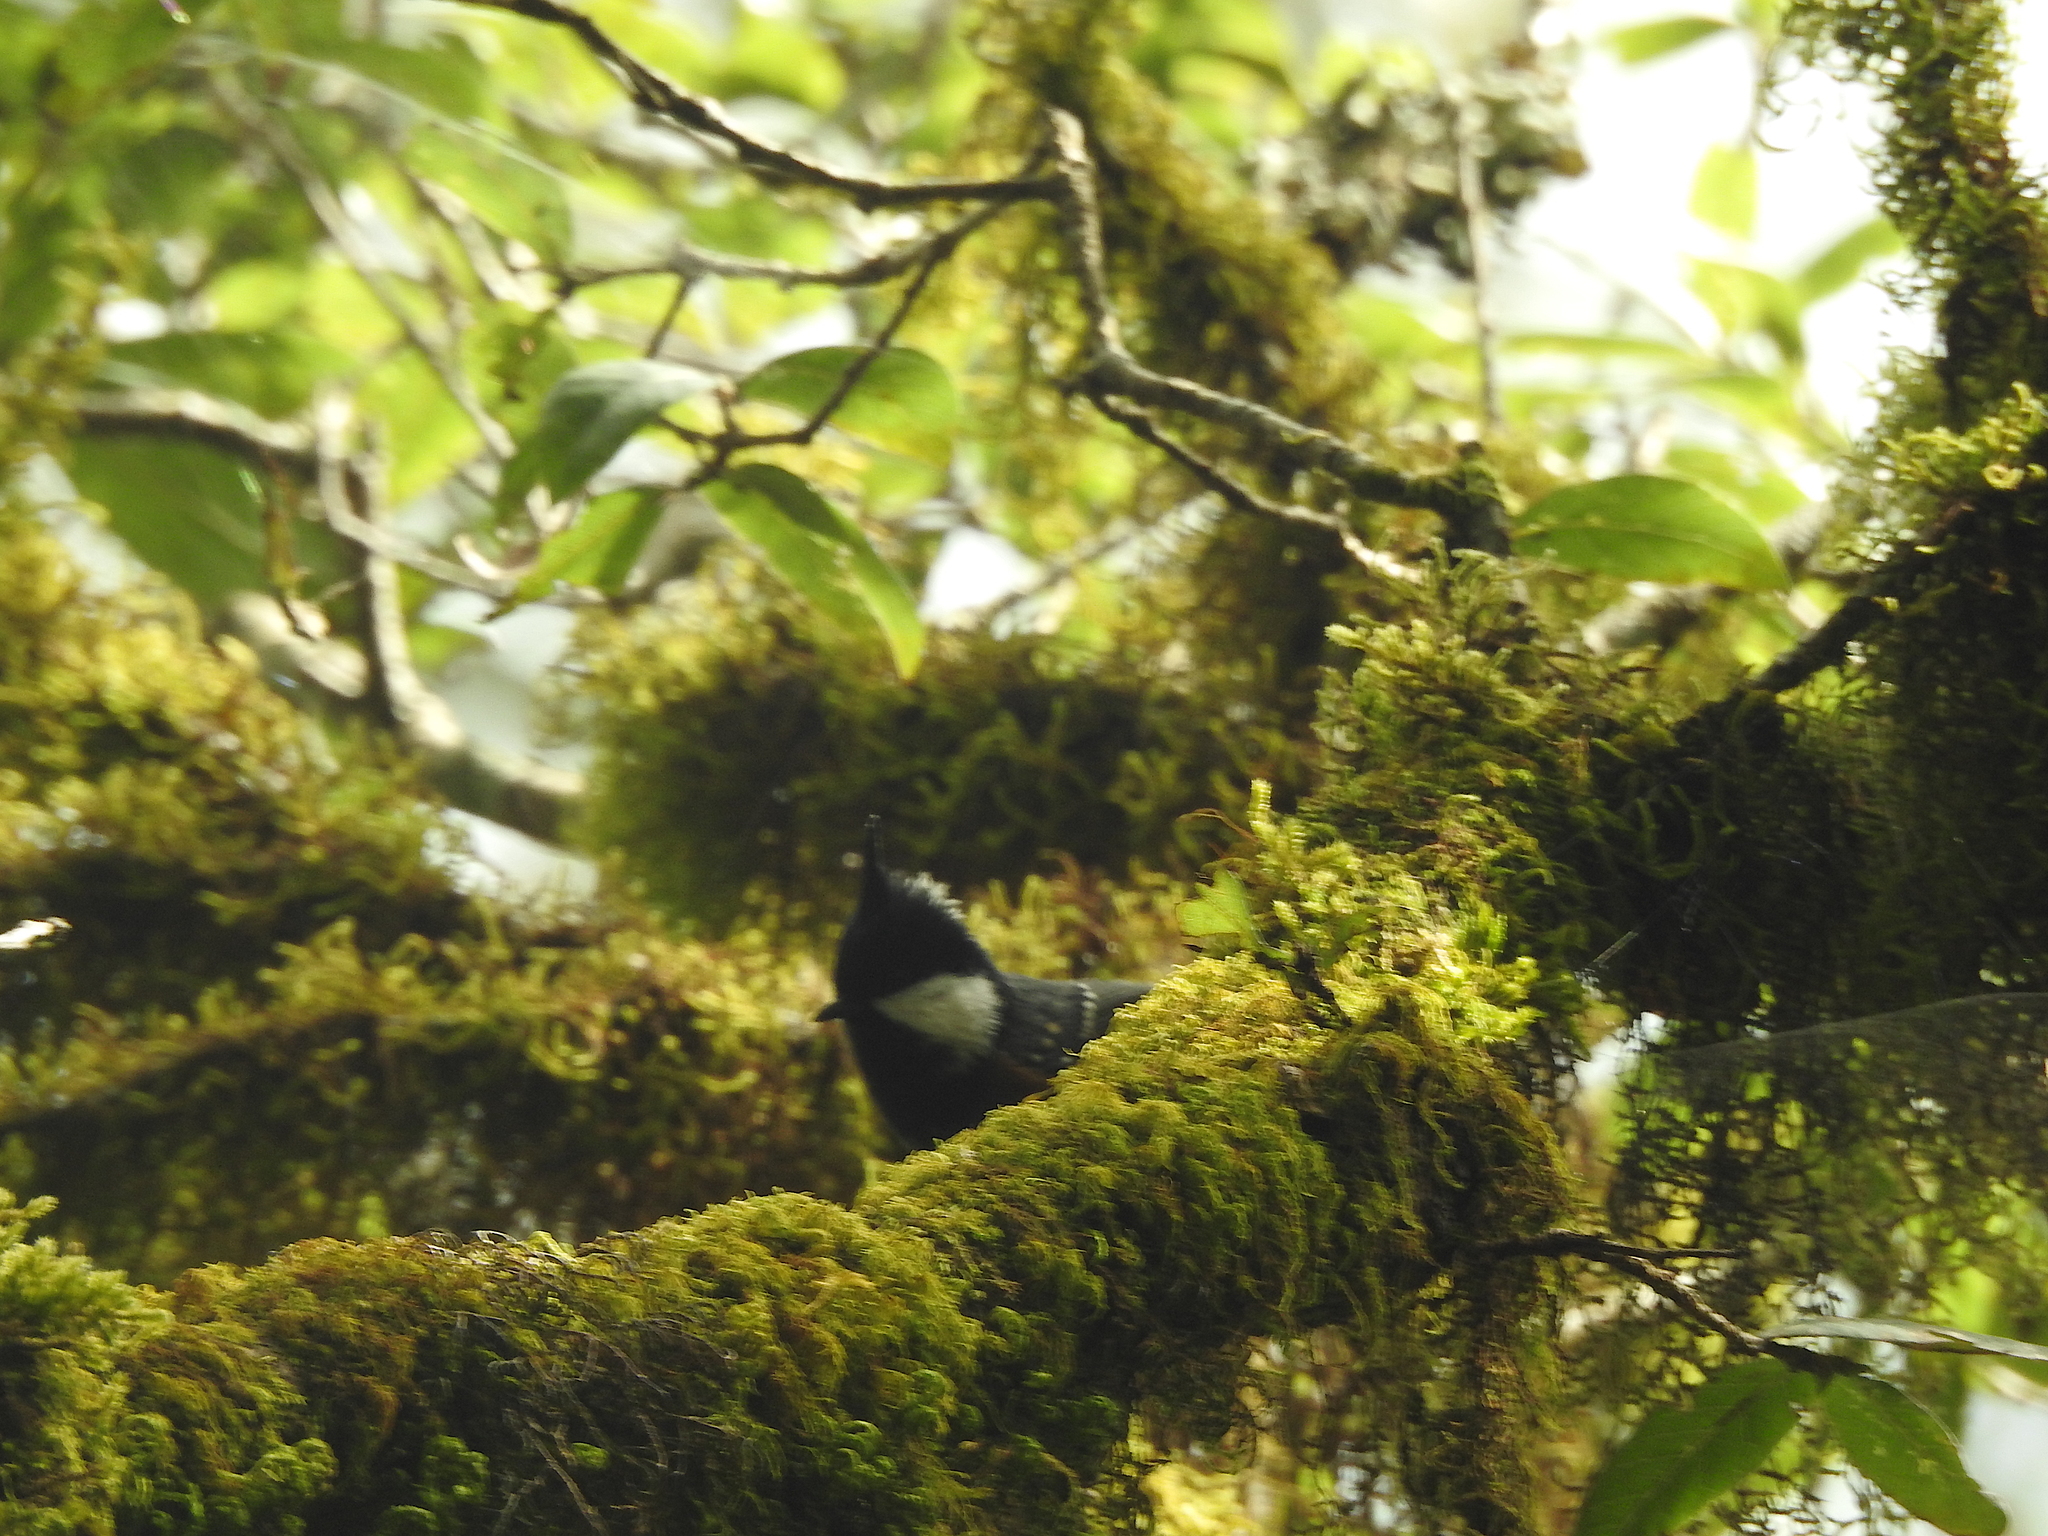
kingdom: Animalia
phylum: Chordata
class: Aves
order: Passeriformes
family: Paridae
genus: Periparus
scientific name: Periparus ater
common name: Coal tit
